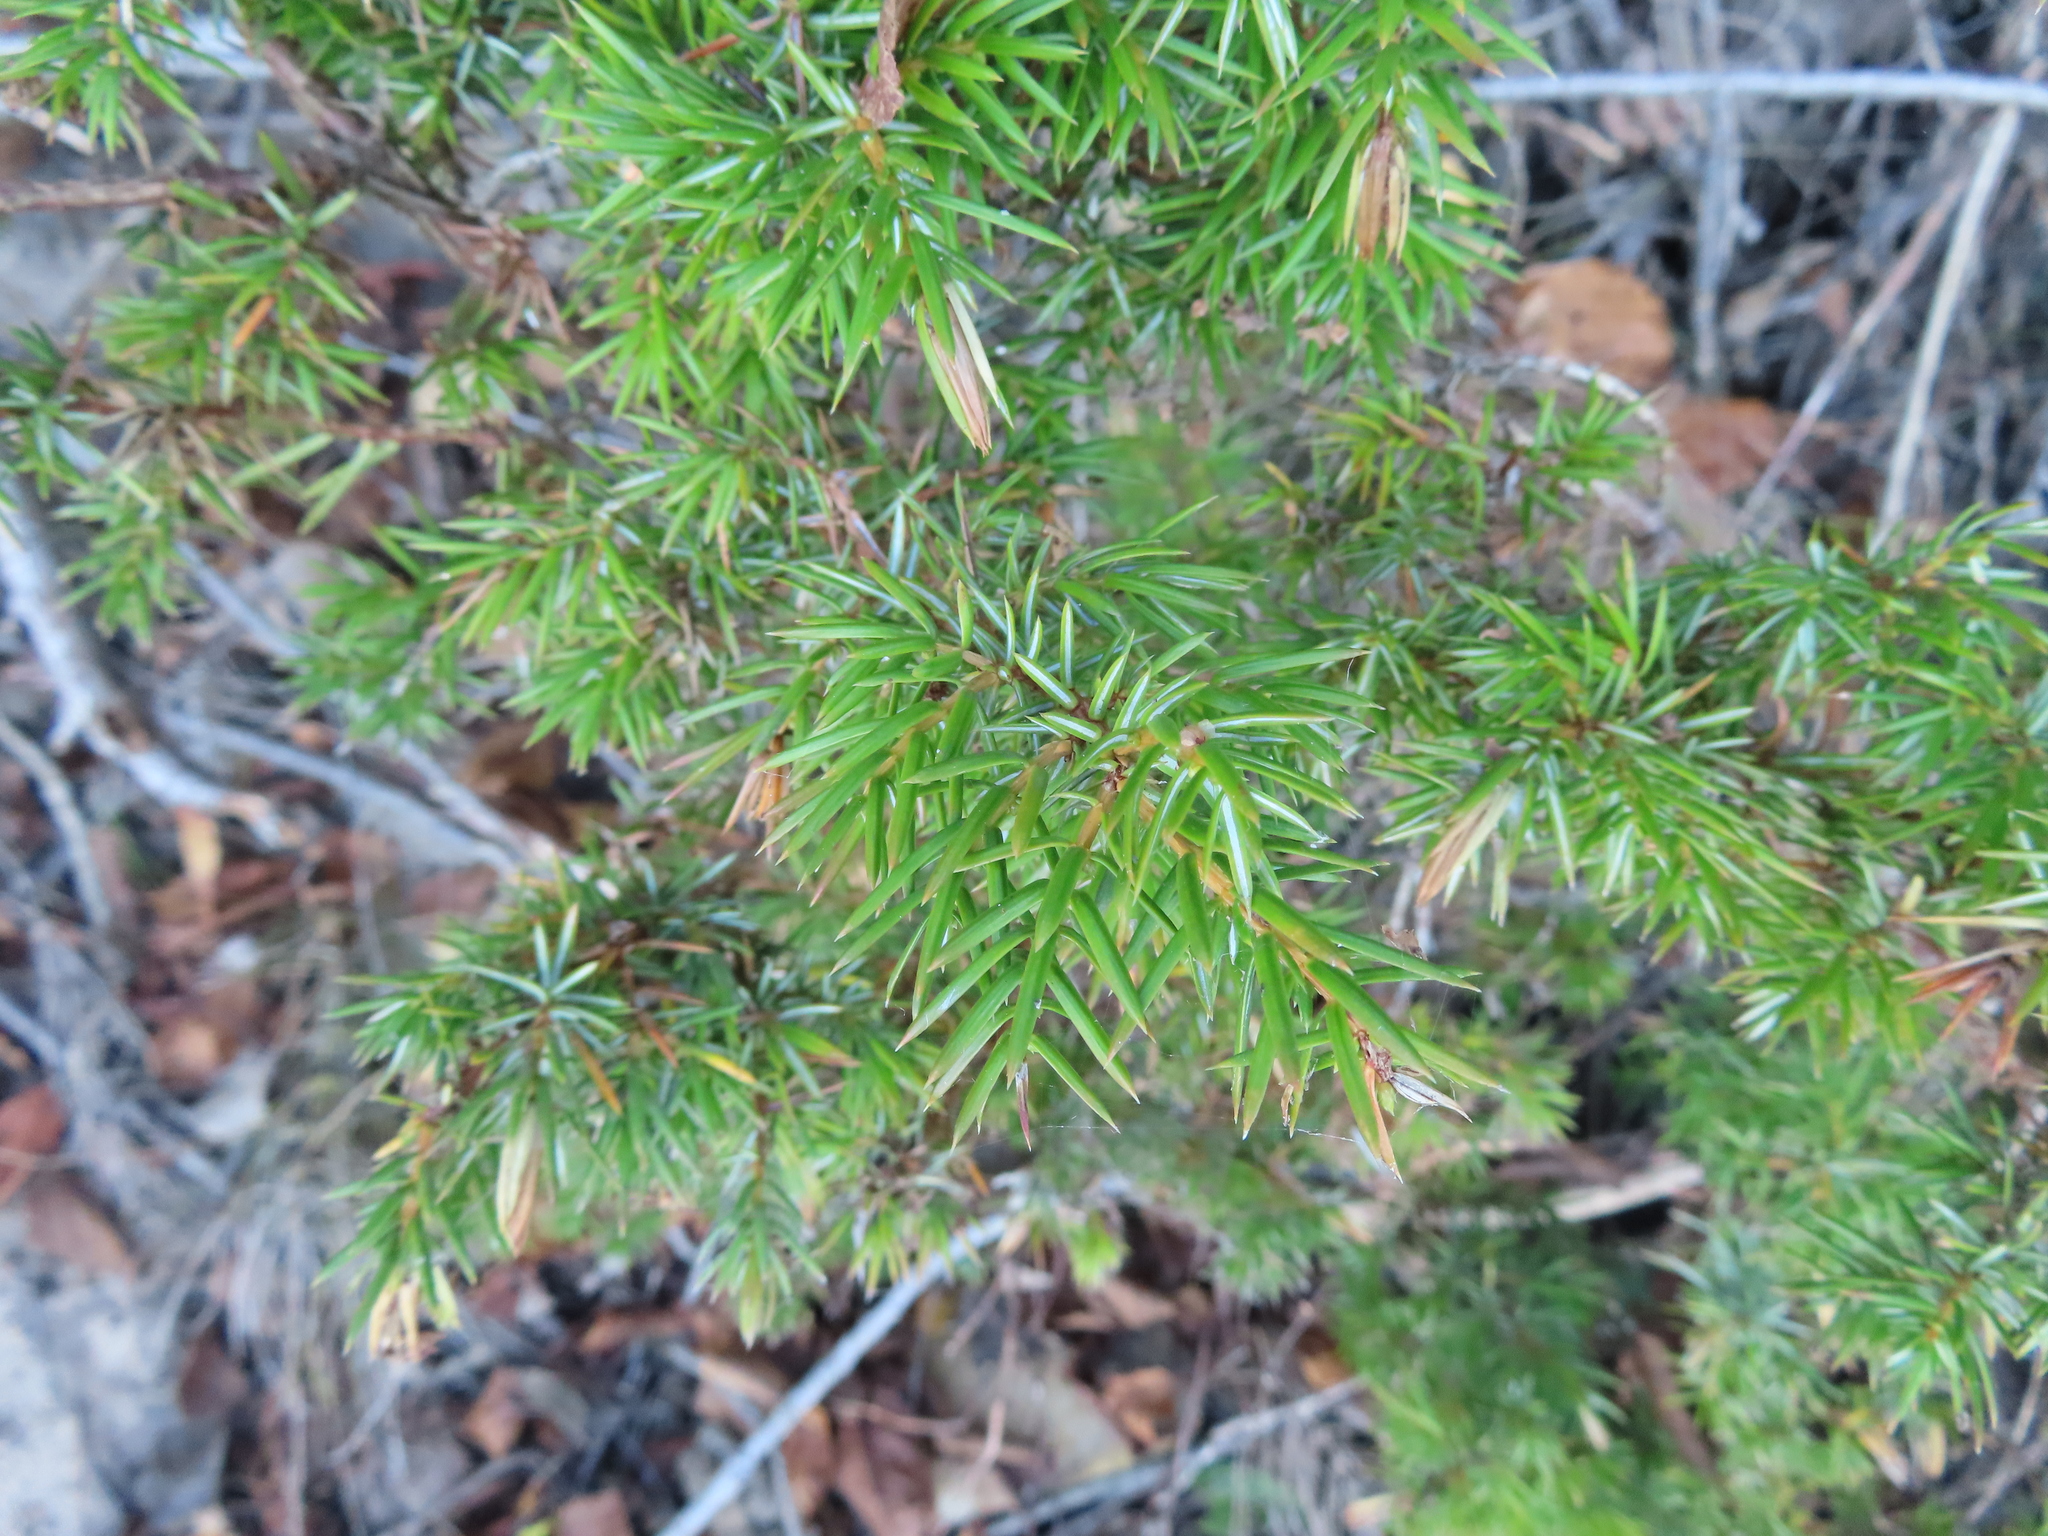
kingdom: Plantae
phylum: Tracheophyta
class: Pinopsida
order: Pinales
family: Cupressaceae
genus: Juniperus
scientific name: Juniperus communis
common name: Common juniper
